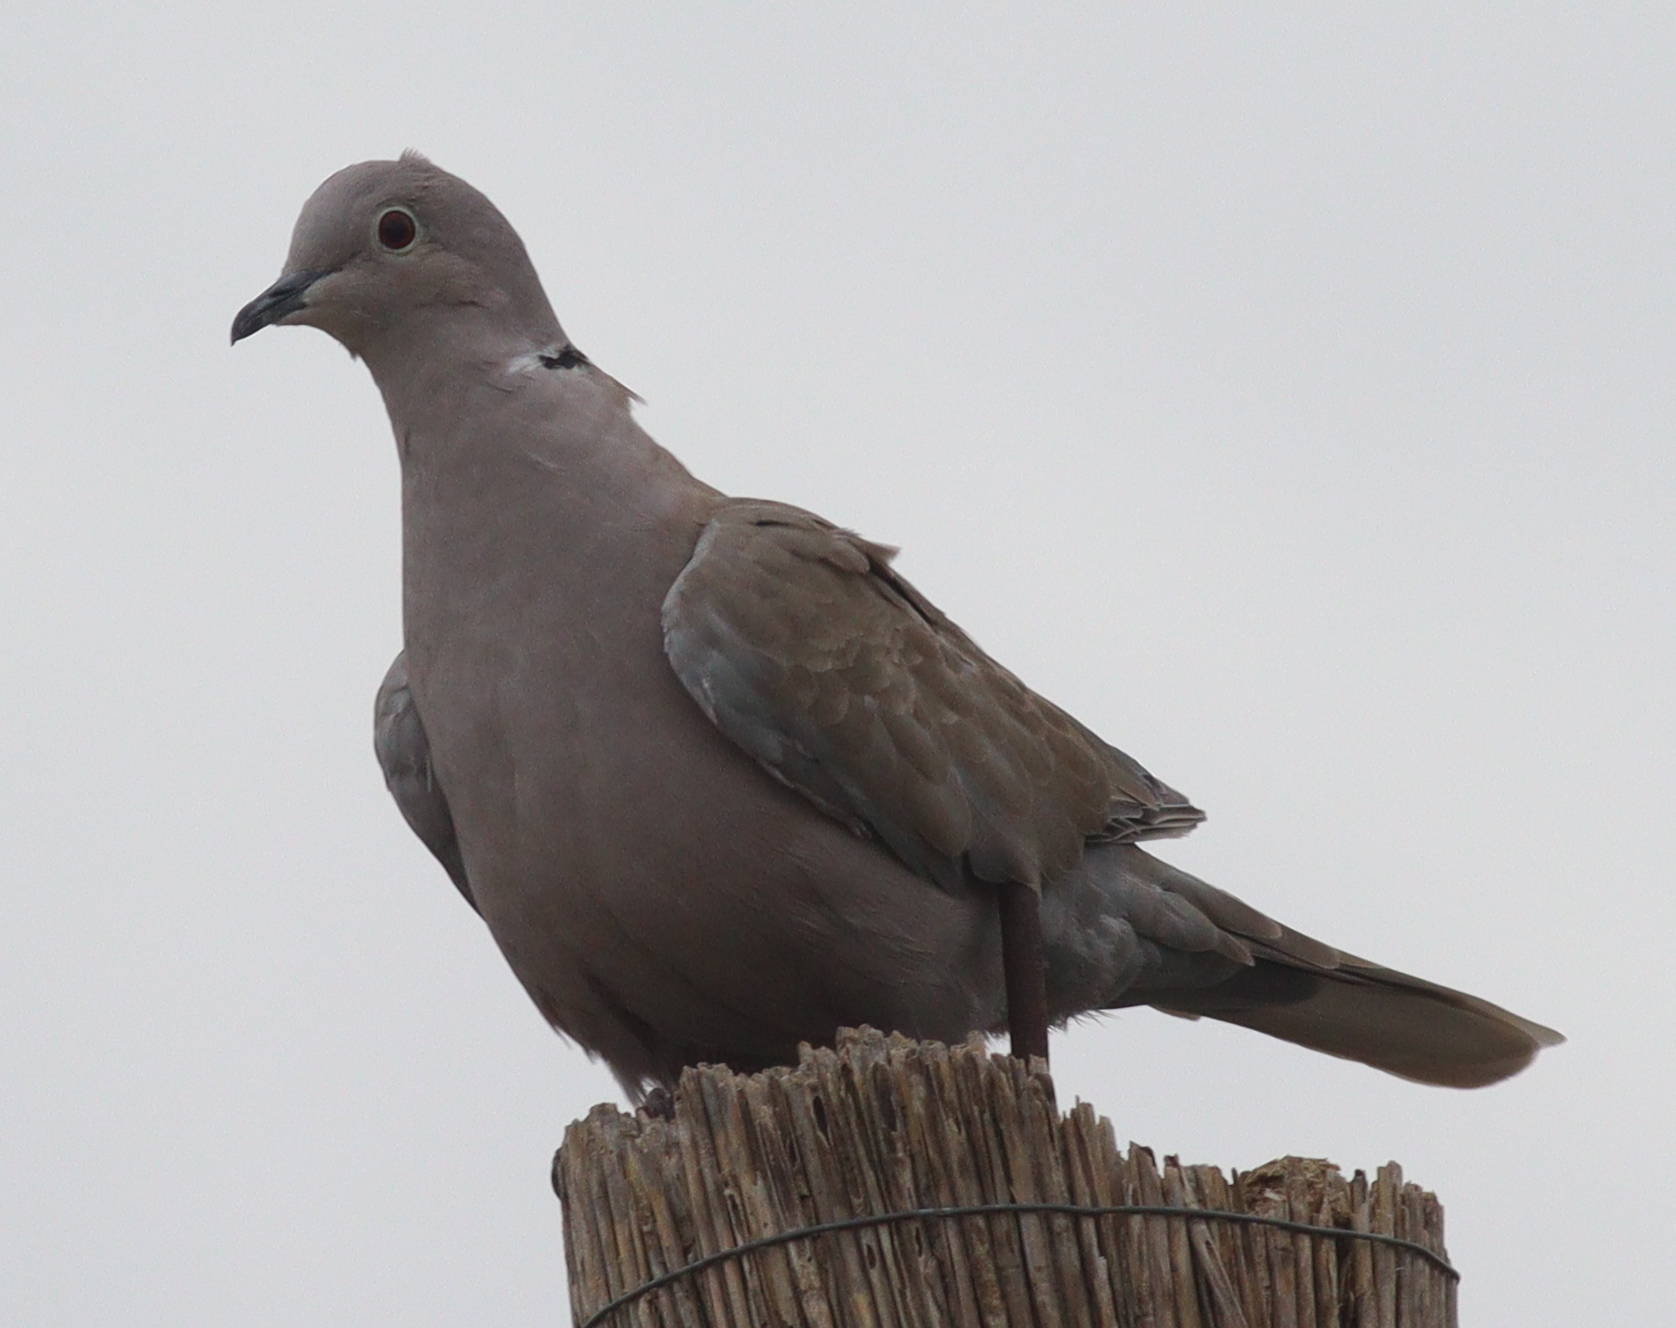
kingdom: Animalia
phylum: Chordata
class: Aves
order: Columbiformes
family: Columbidae
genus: Streptopelia
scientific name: Streptopelia decaocto
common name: Eurasian collared dove
